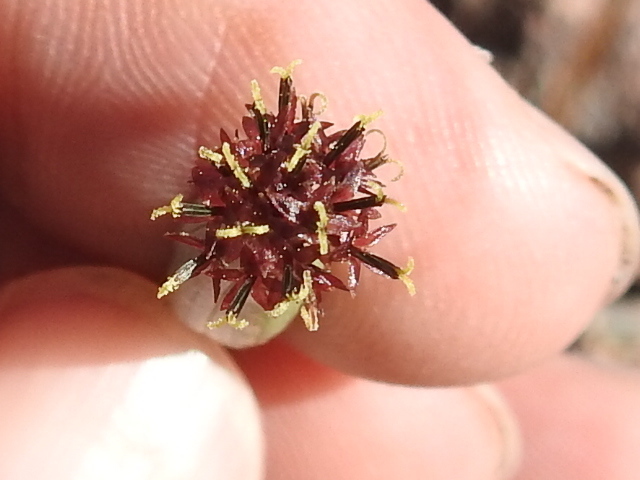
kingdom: Plantae
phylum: Tracheophyta
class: Magnoliopsida
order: Asterales
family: Asteraceae
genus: Porophyllum
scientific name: Porophyllum ruderale
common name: Yerba porosa
